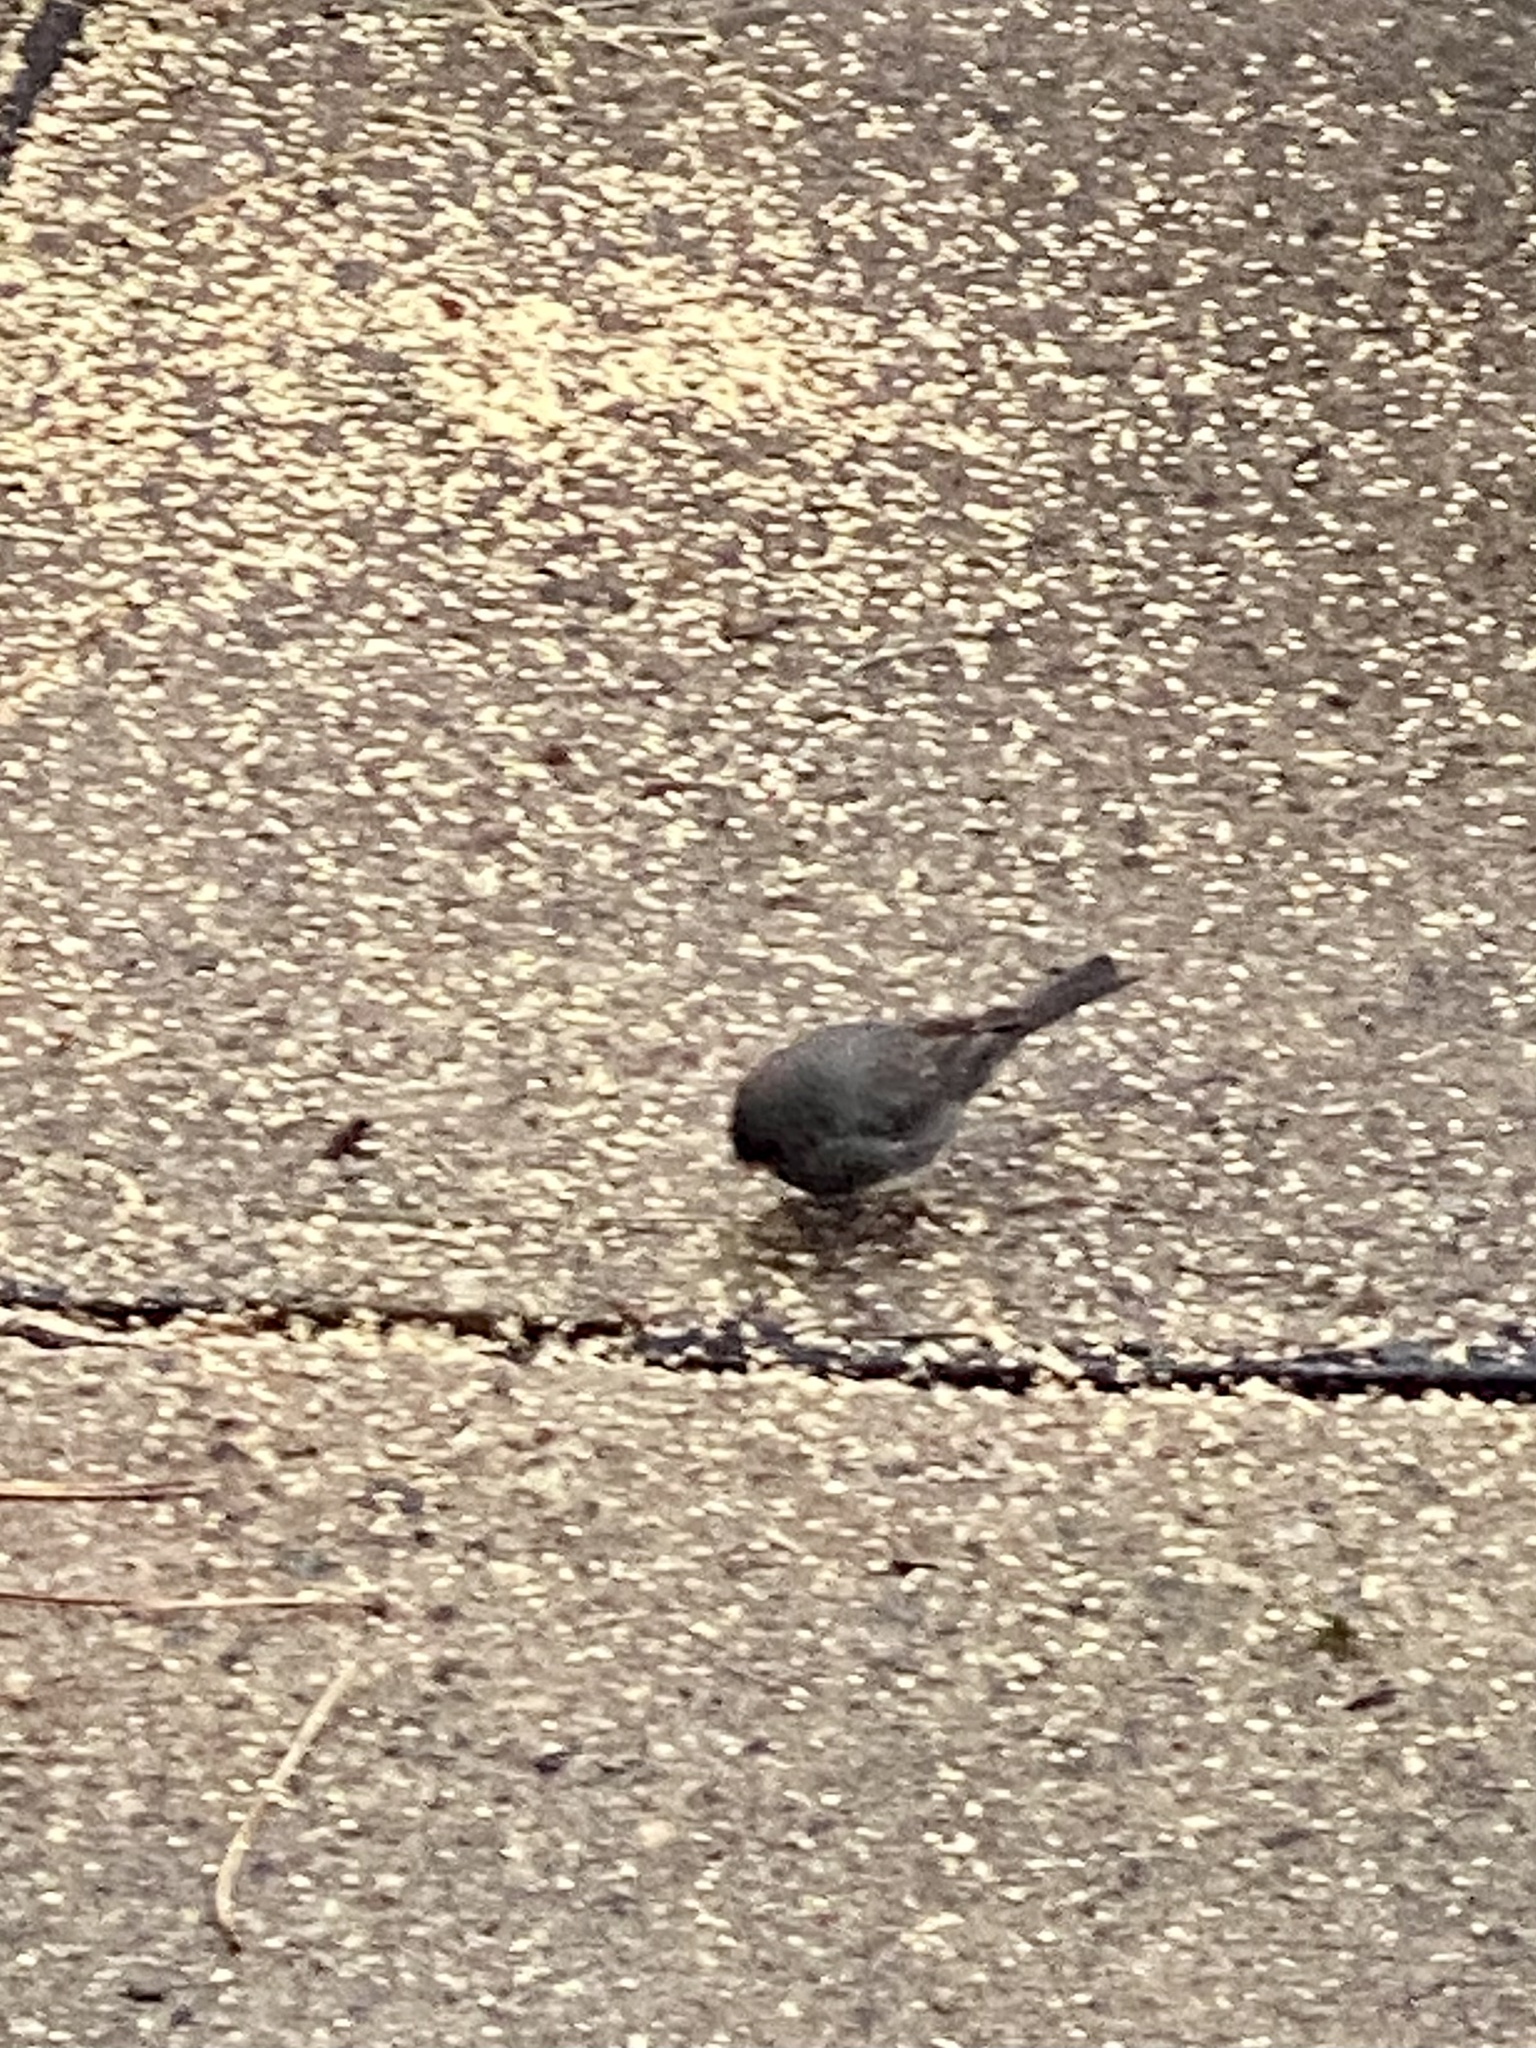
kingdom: Animalia
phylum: Chordata
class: Aves
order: Passeriformes
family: Passerellidae
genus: Junco
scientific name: Junco hyemalis
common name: Dark-eyed junco
